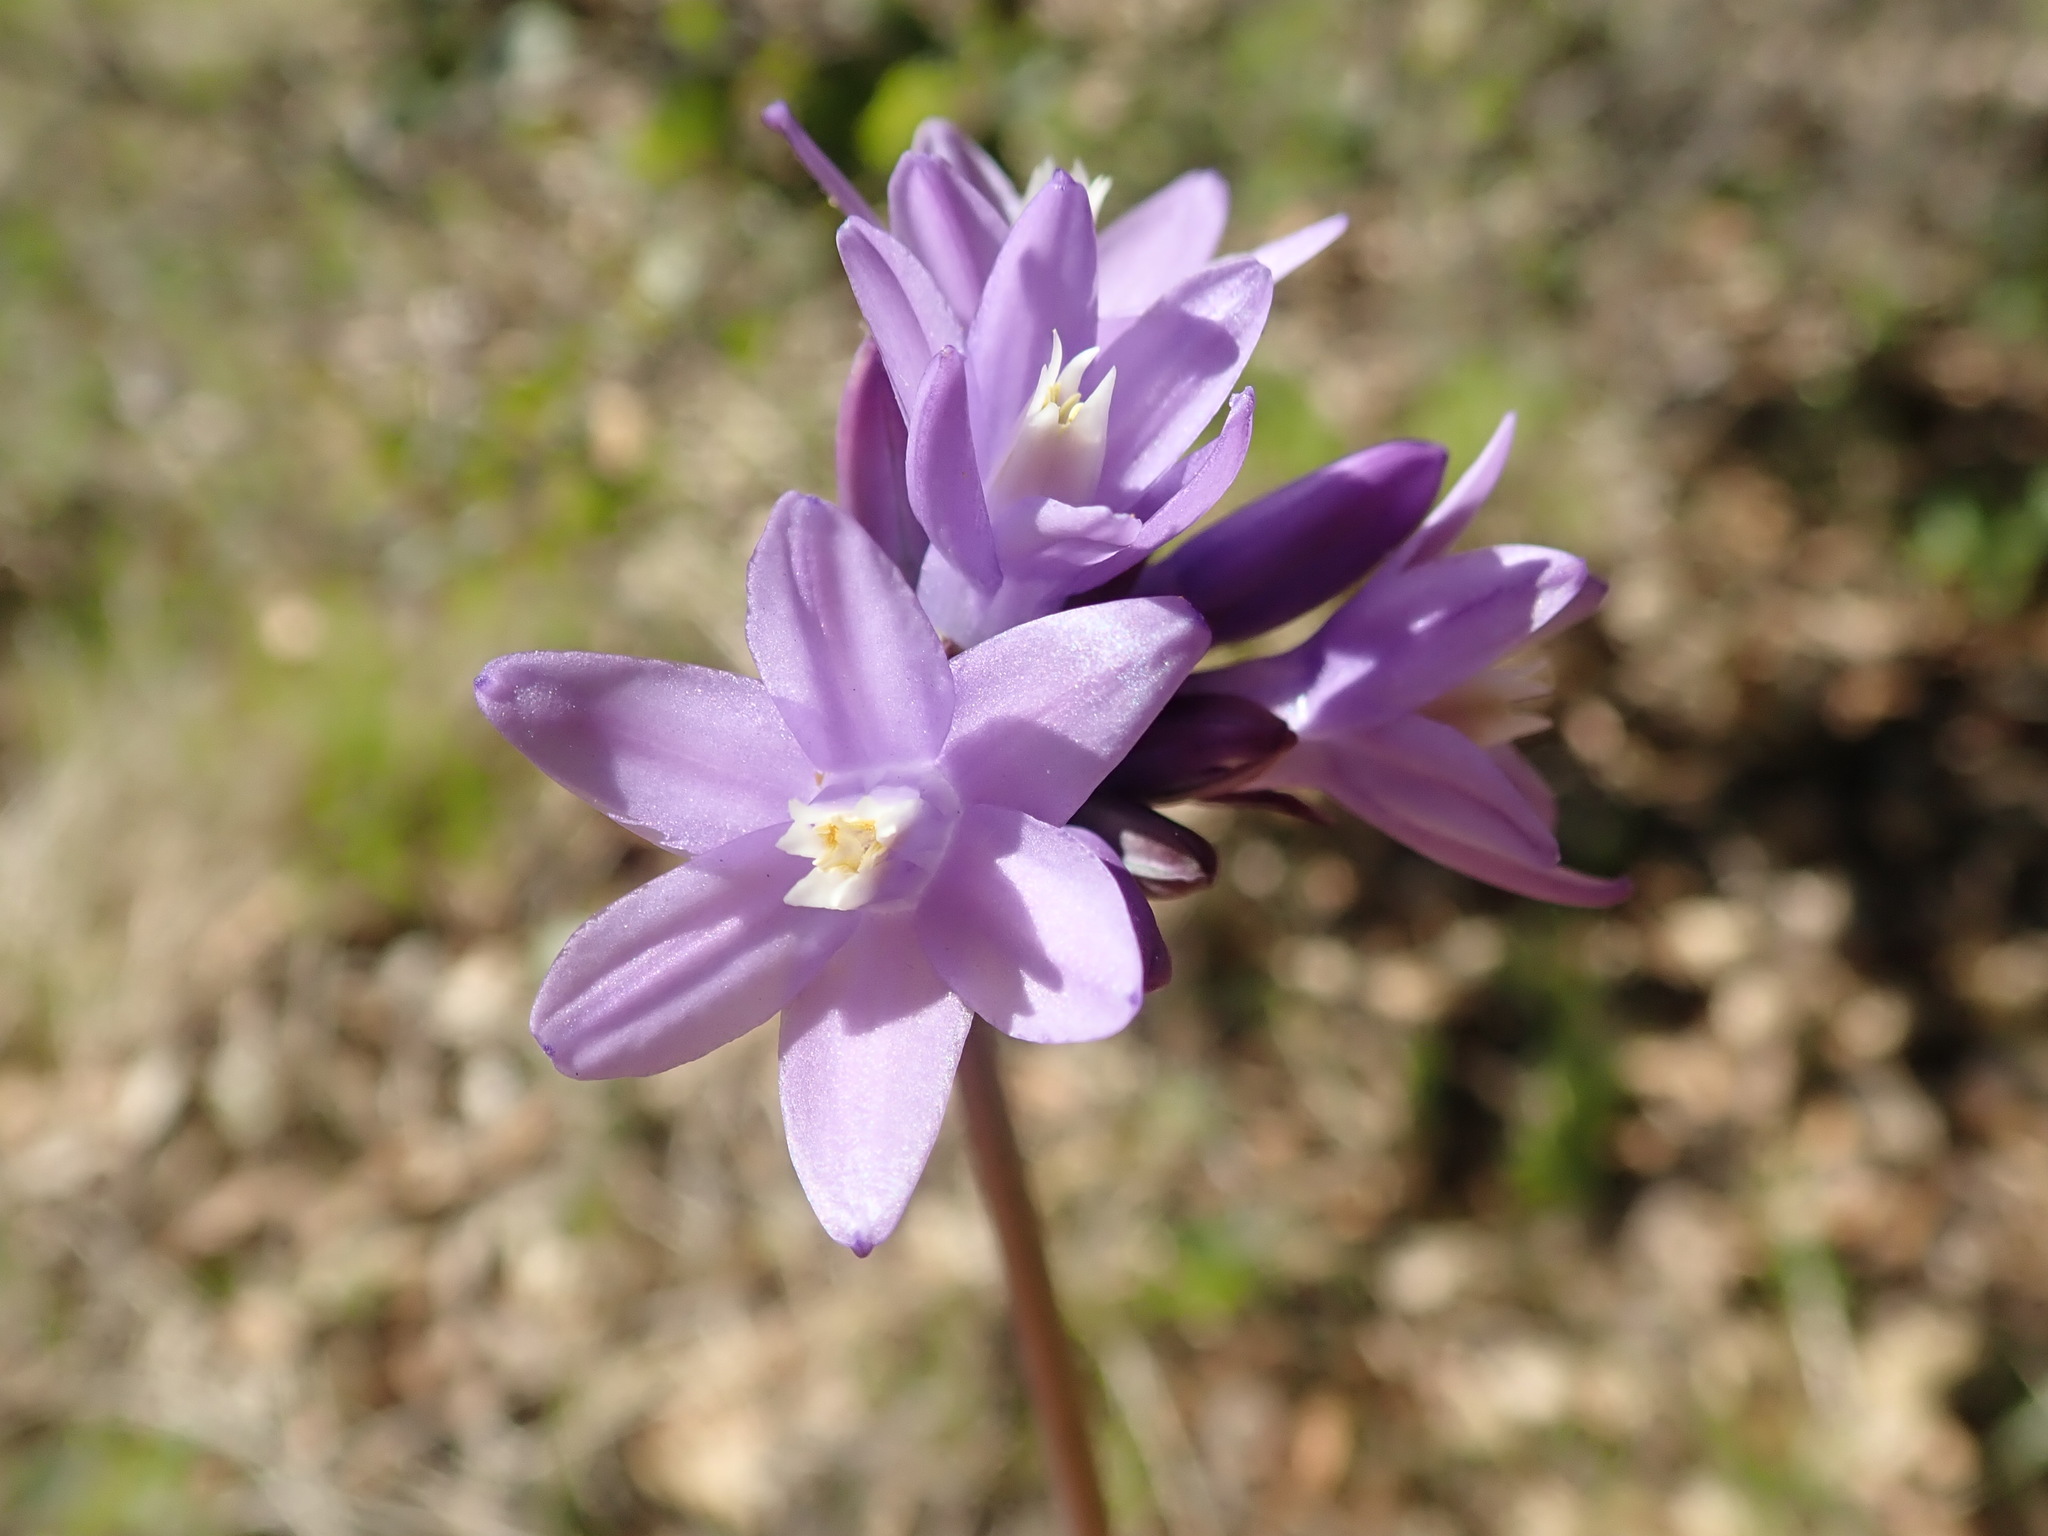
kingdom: Plantae
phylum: Tracheophyta
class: Liliopsida
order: Asparagales
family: Asparagaceae
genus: Dipterostemon
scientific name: Dipterostemon capitatus
